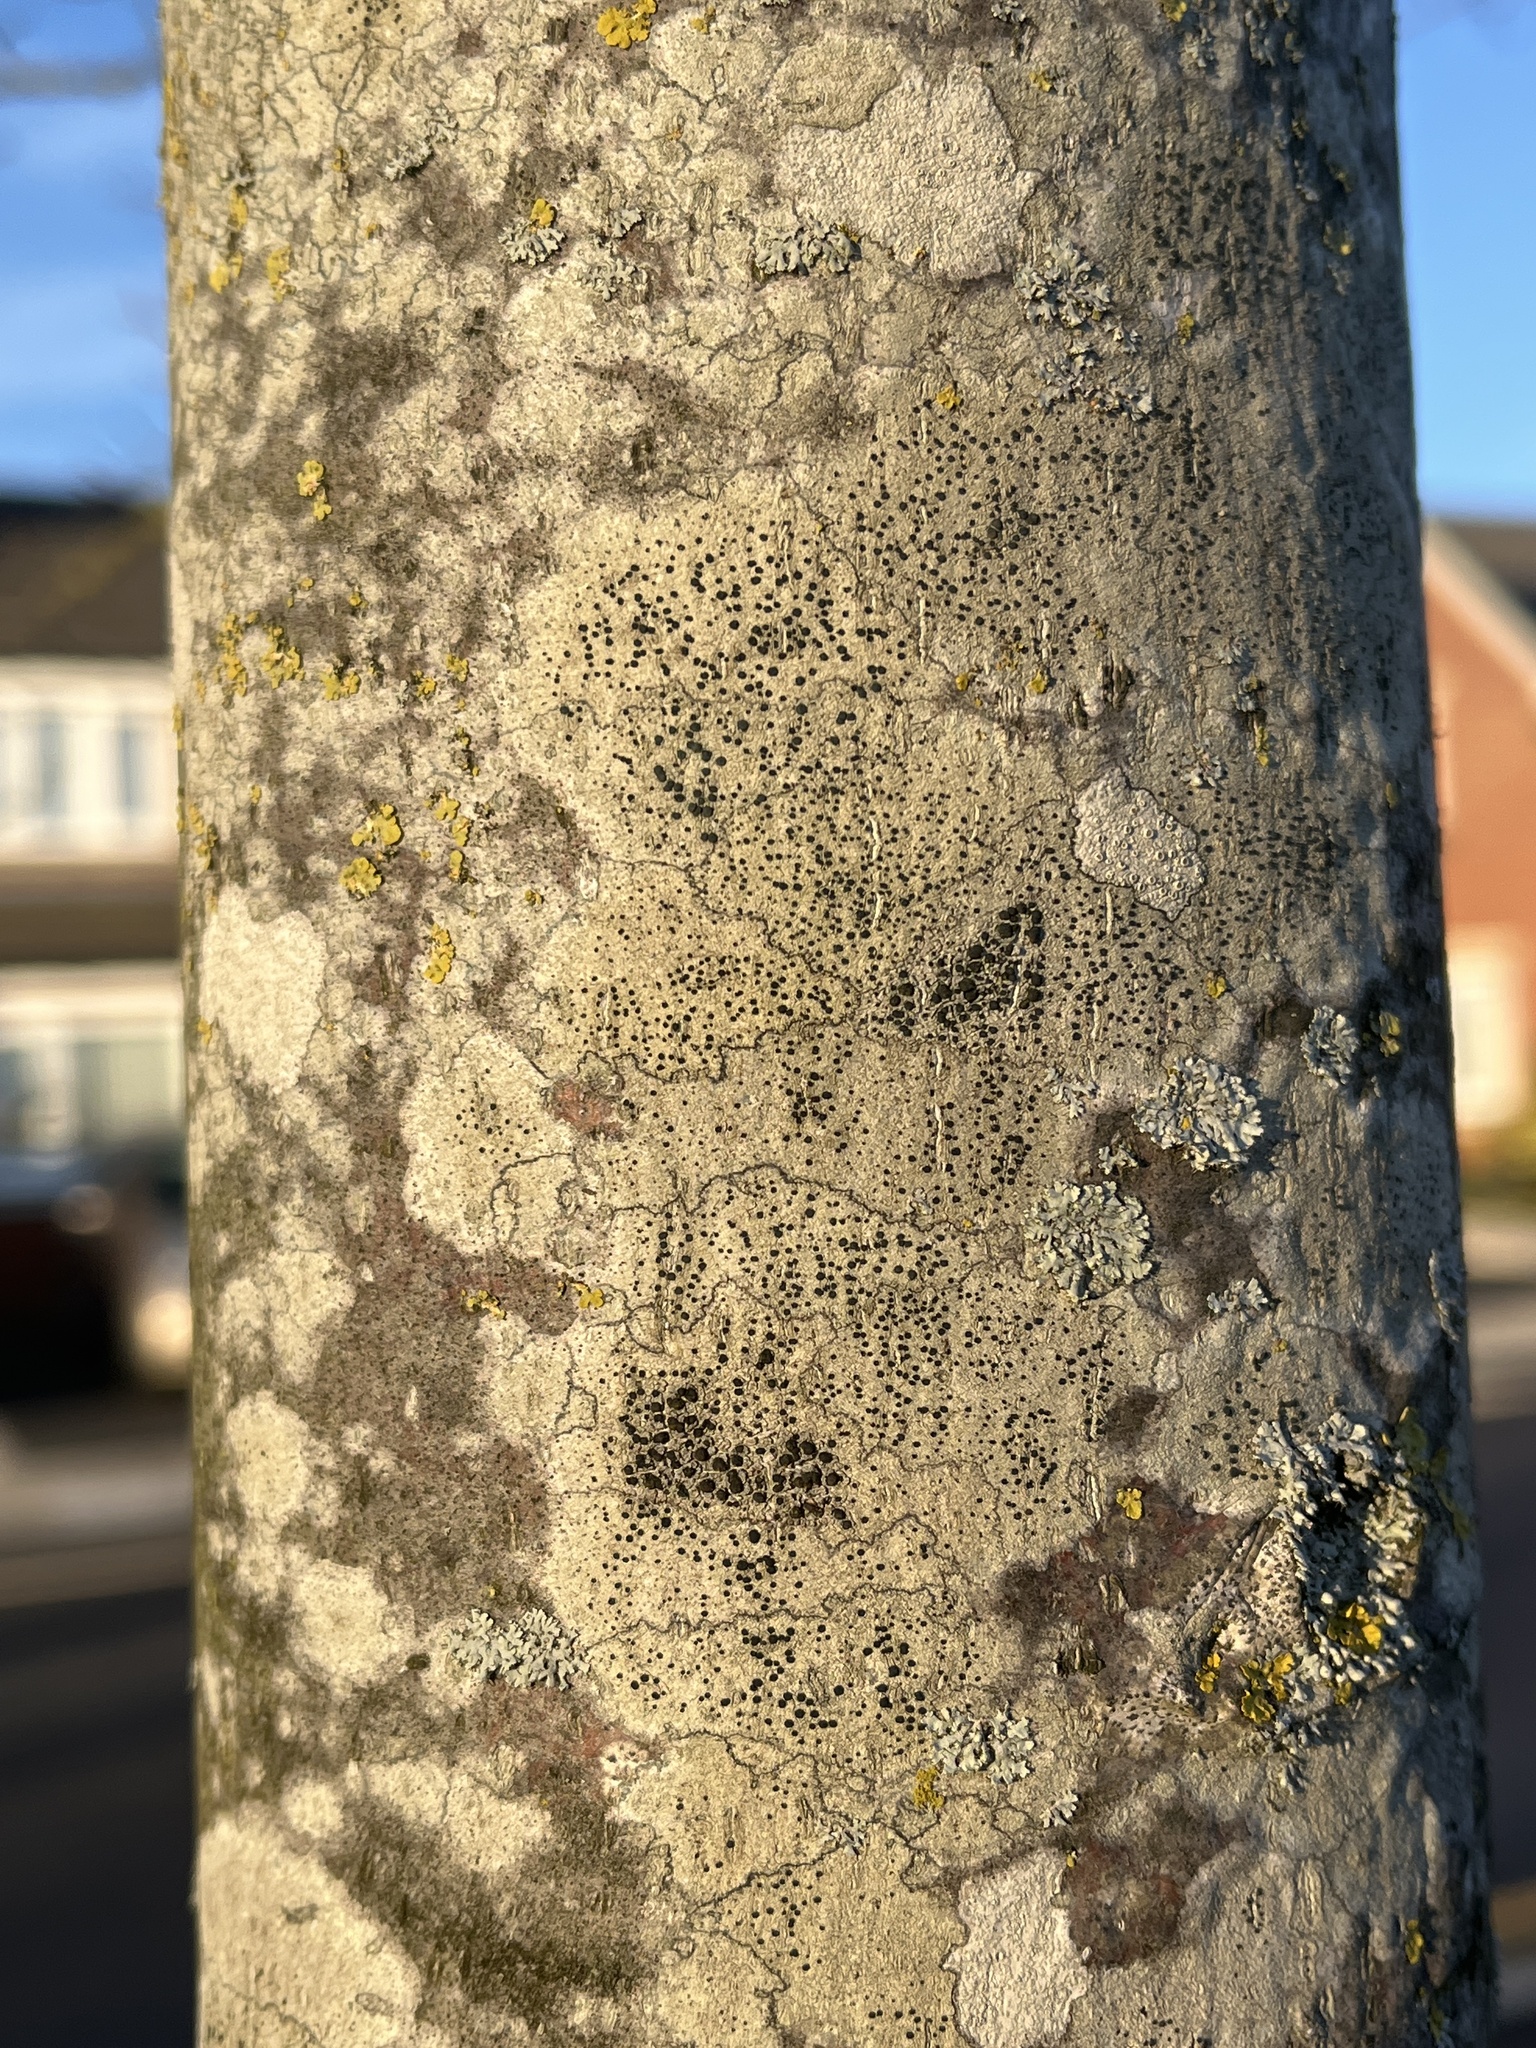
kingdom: Fungi
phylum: Ascomycota
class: Lecanoromycetes
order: Lecanorales
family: Lecanoraceae
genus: Lecidella
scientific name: Lecidella elaeochroma
